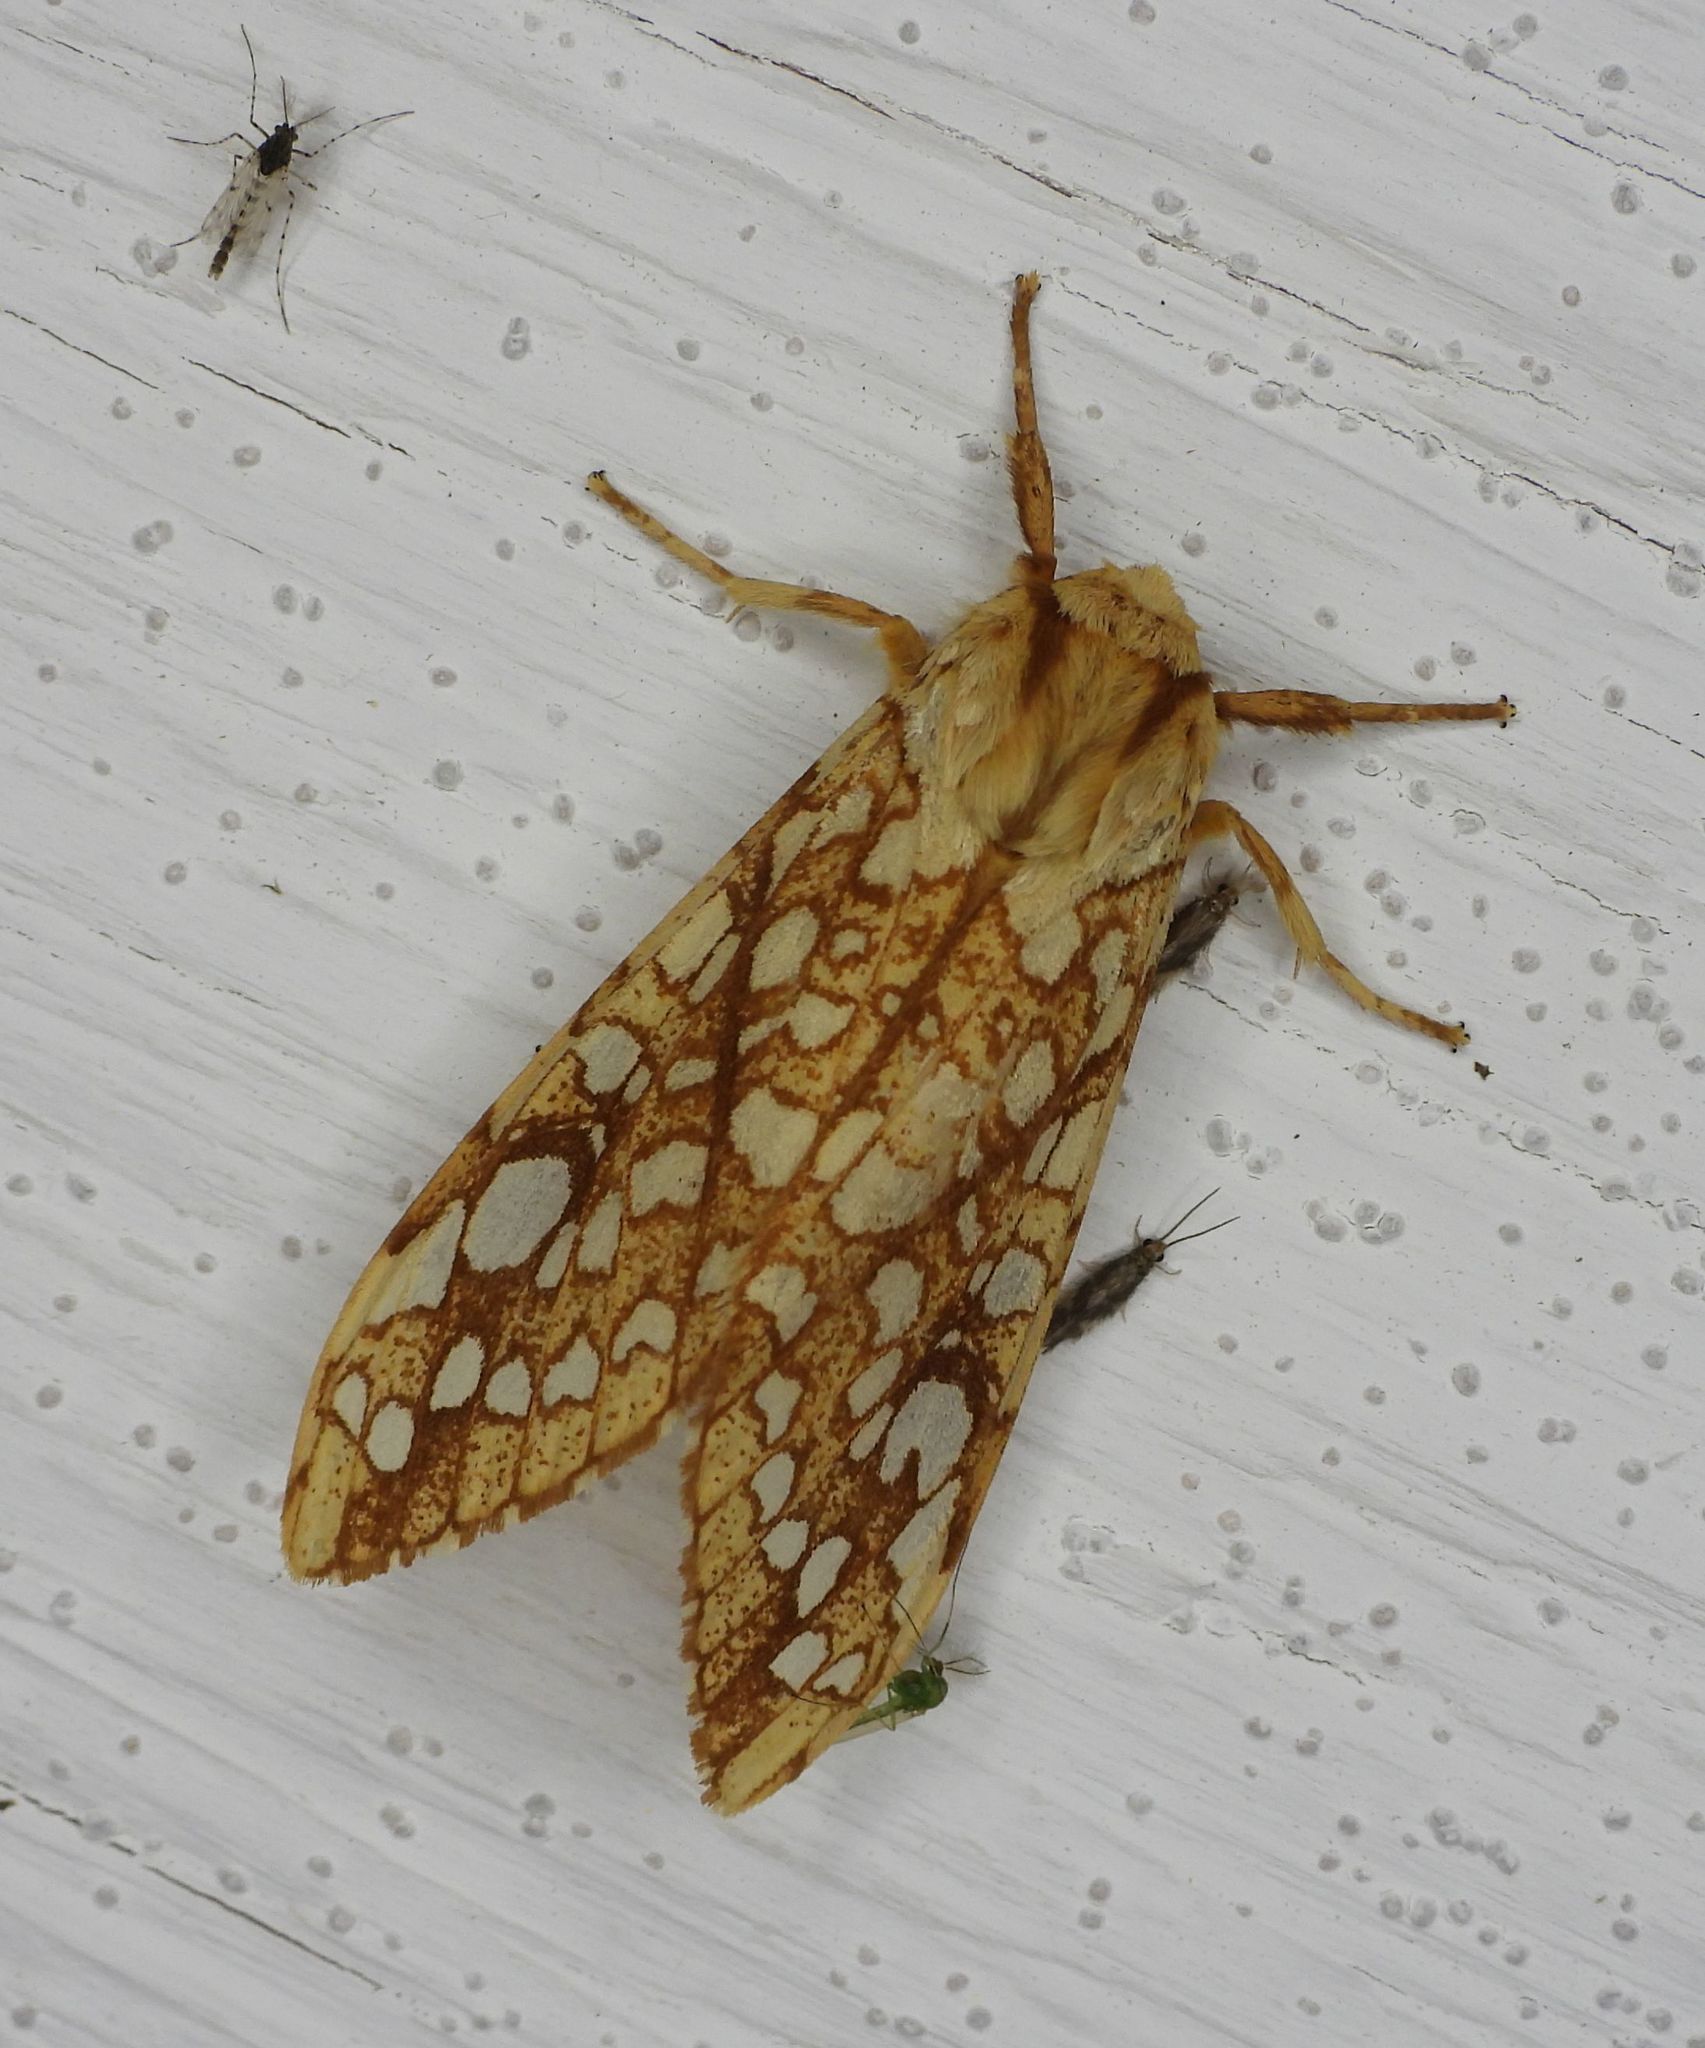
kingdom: Animalia
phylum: Arthropoda
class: Insecta
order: Lepidoptera
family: Erebidae
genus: Lophocampa
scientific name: Lophocampa caryae
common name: Hickory tussock moth
